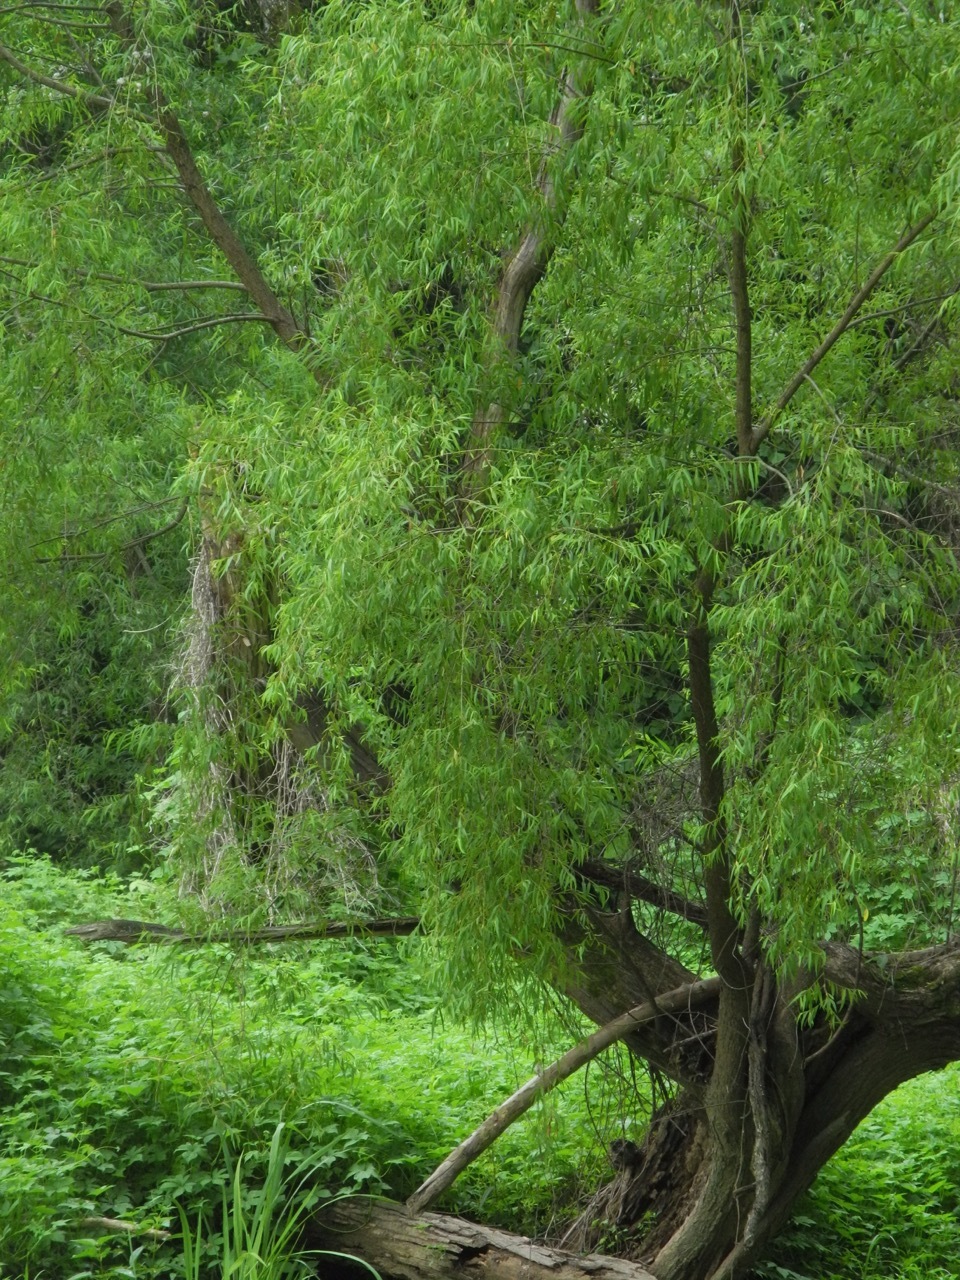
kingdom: Plantae
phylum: Tracheophyta
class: Magnoliopsida
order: Malpighiales
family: Salicaceae
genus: Salix
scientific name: Salix nigra
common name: Black willow
